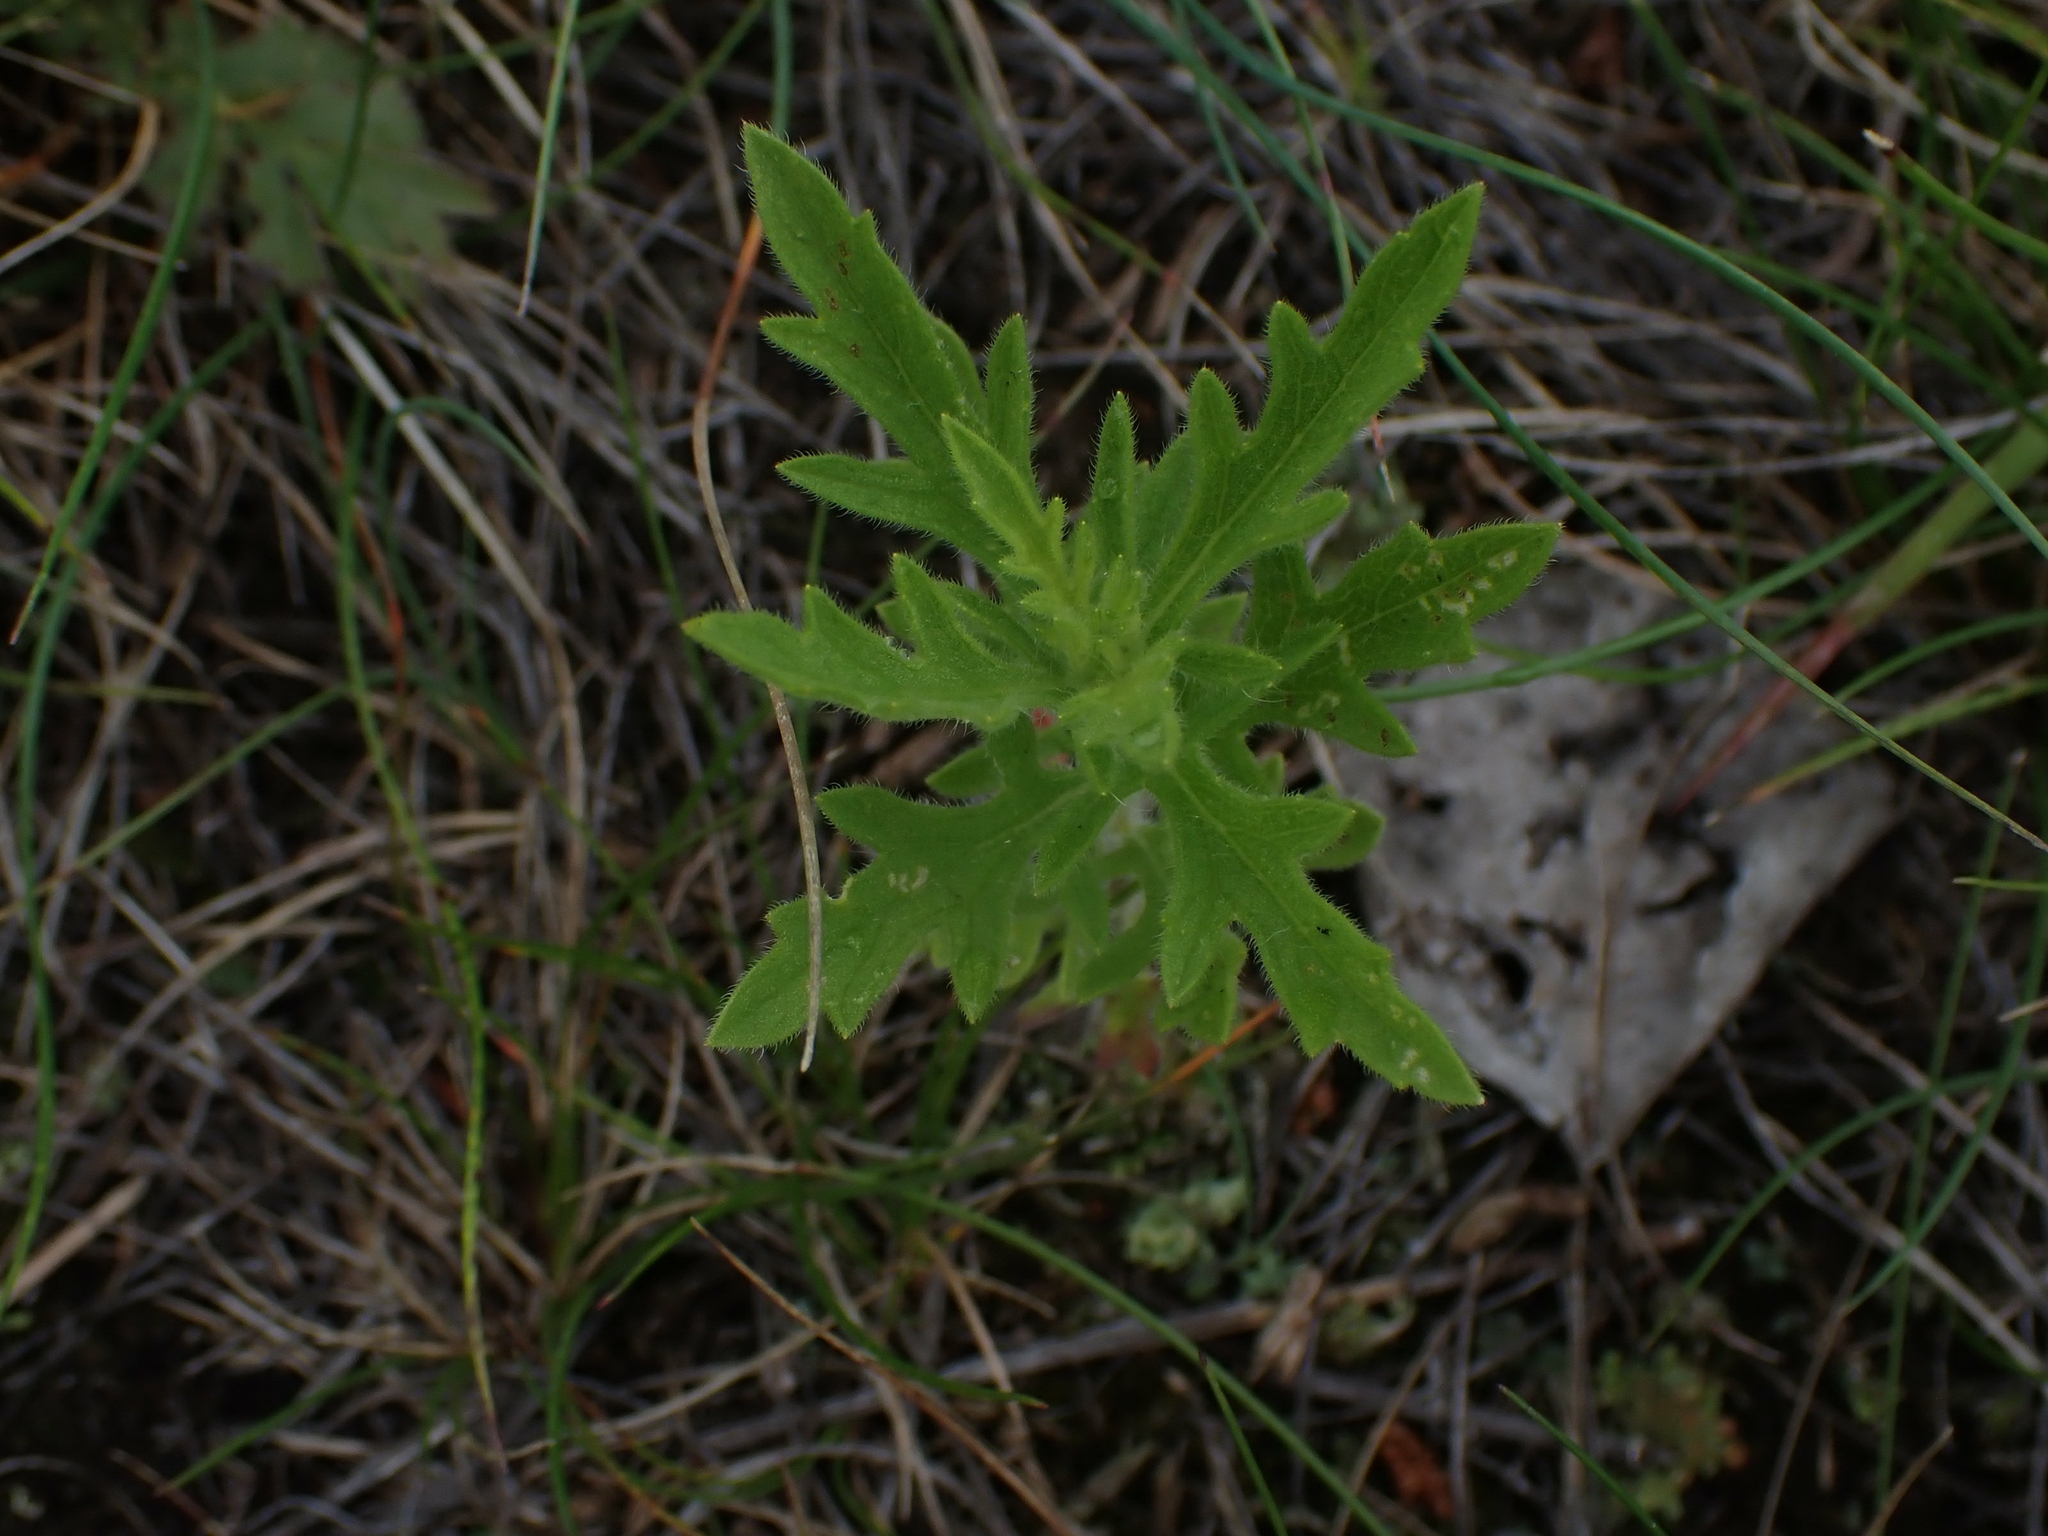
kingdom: Plantae
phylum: Tracheophyta
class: Magnoliopsida
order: Asterales
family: Asteraceae
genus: Ambrosia
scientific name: Ambrosia psilostachya
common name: Perennial ragweed
